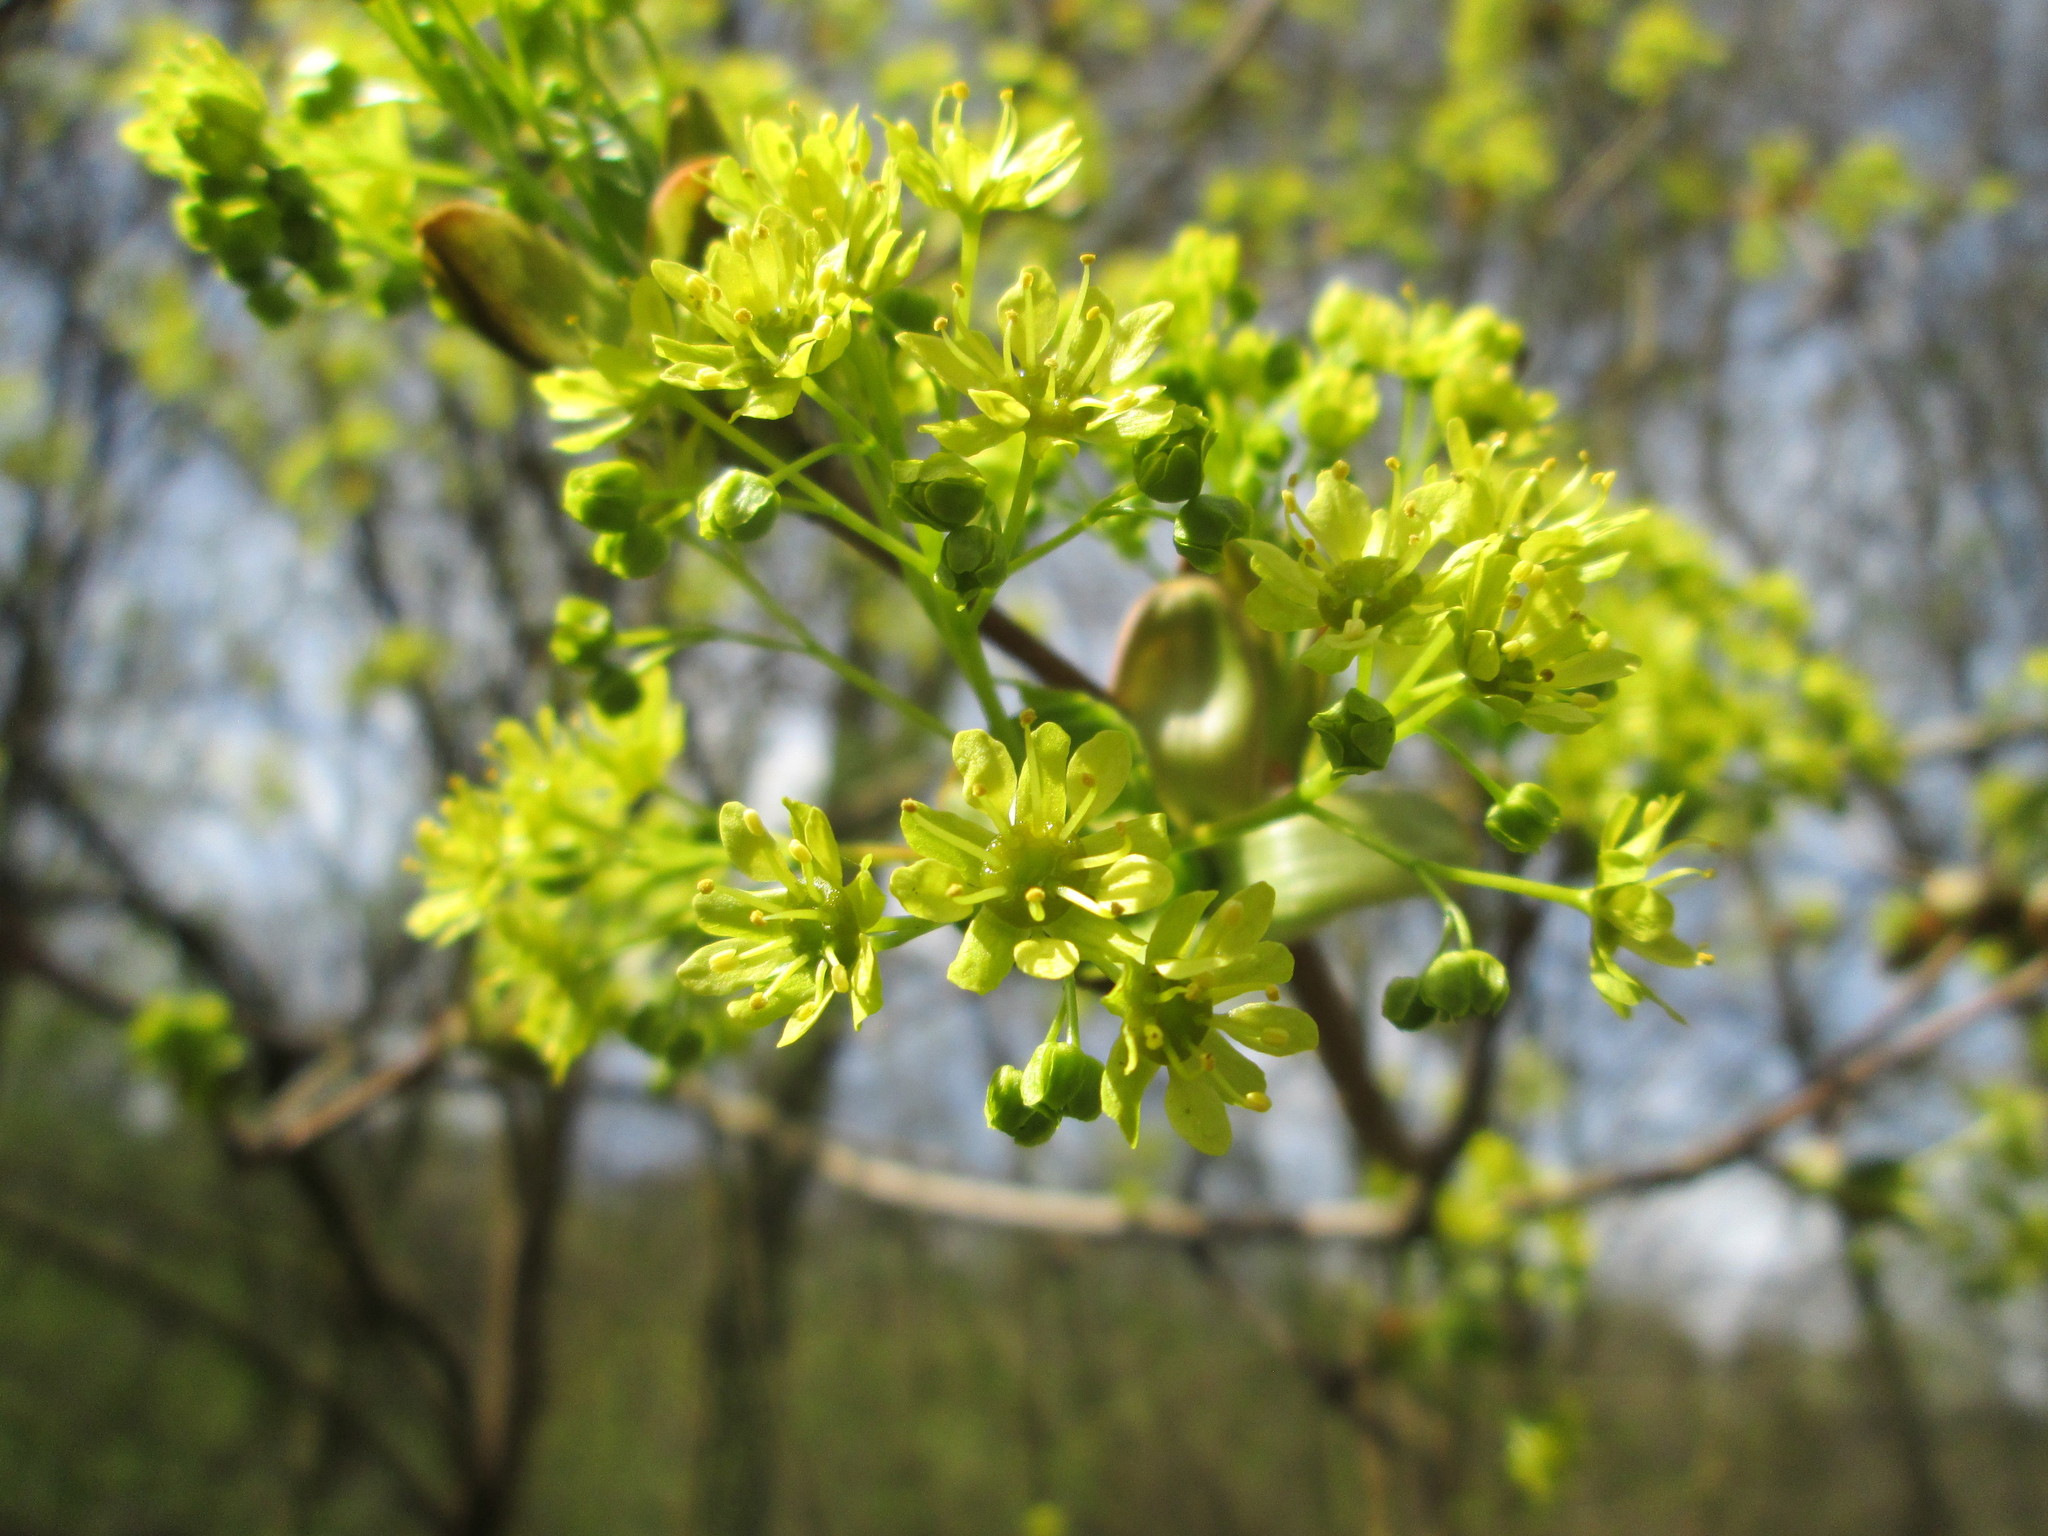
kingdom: Plantae
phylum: Tracheophyta
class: Magnoliopsida
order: Sapindales
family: Sapindaceae
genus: Acer
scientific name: Acer platanoides
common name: Norway maple
